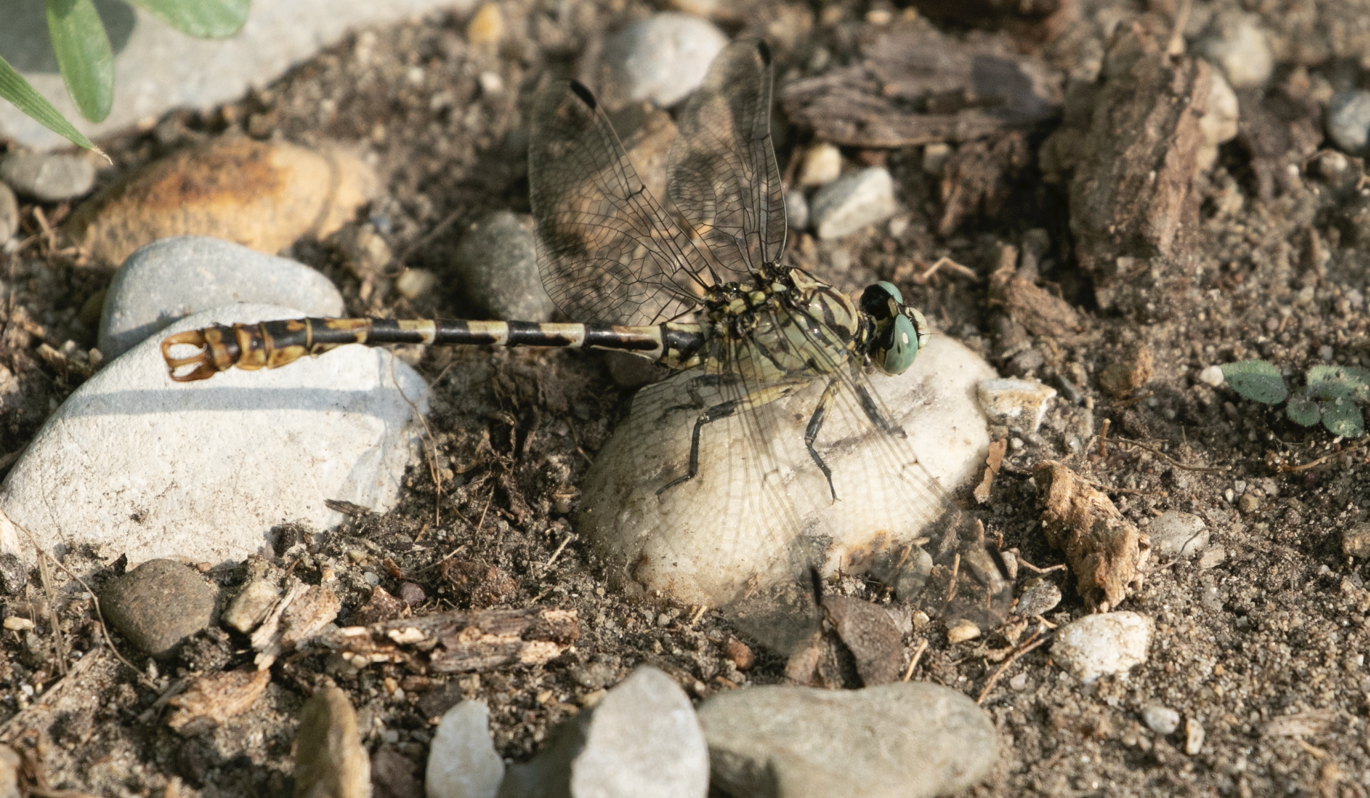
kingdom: Animalia
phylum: Arthropoda
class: Insecta
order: Odonata
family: Gomphidae
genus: Onychogomphus
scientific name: Onychogomphus forcipatus
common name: Small pincertail
